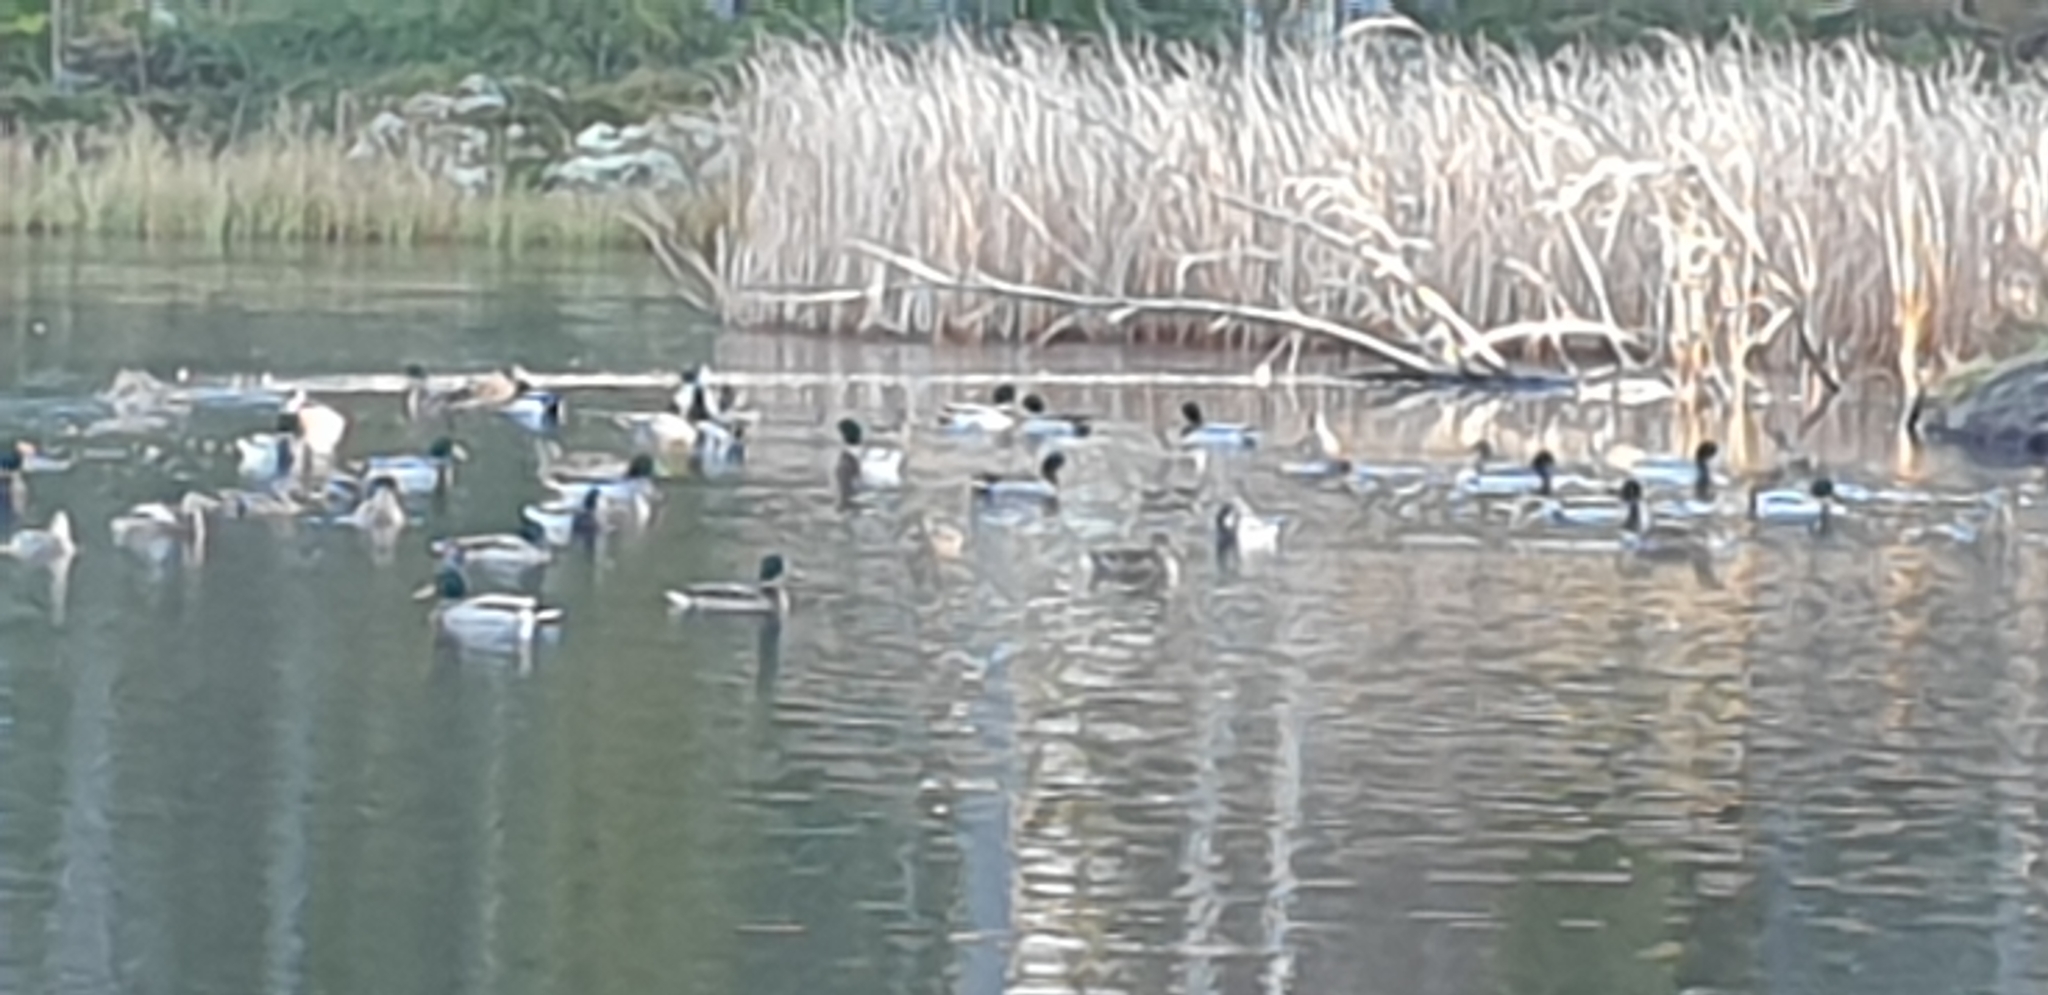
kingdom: Animalia
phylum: Chordata
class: Aves
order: Anseriformes
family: Anatidae
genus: Anas
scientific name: Anas platyrhynchos
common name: Mallard
